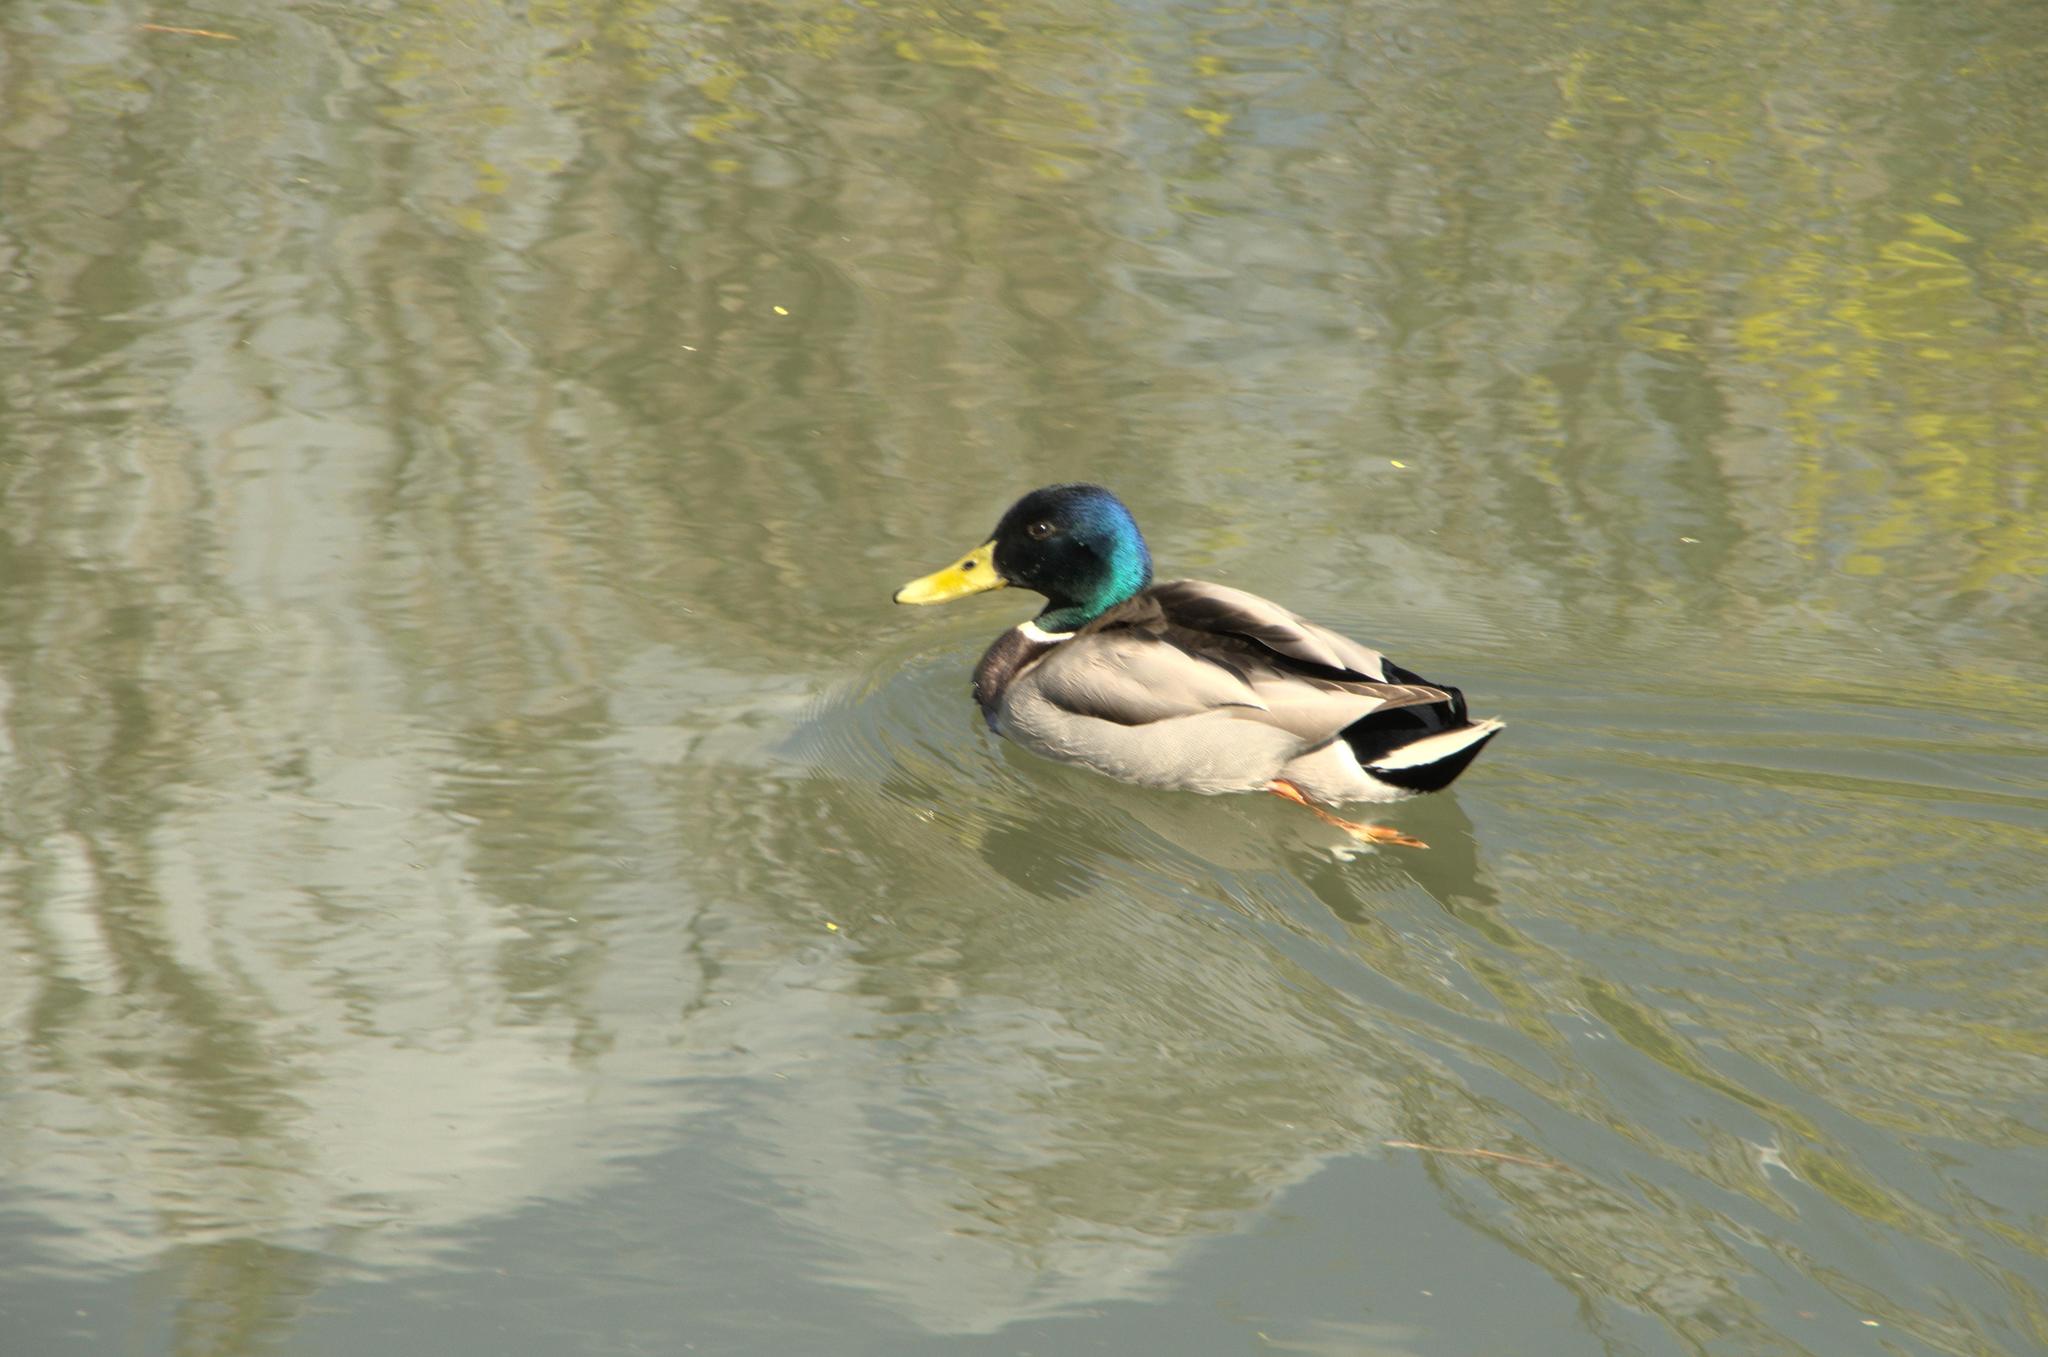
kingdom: Animalia
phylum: Chordata
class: Aves
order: Anseriformes
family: Anatidae
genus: Anas
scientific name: Anas platyrhynchos
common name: Mallard
